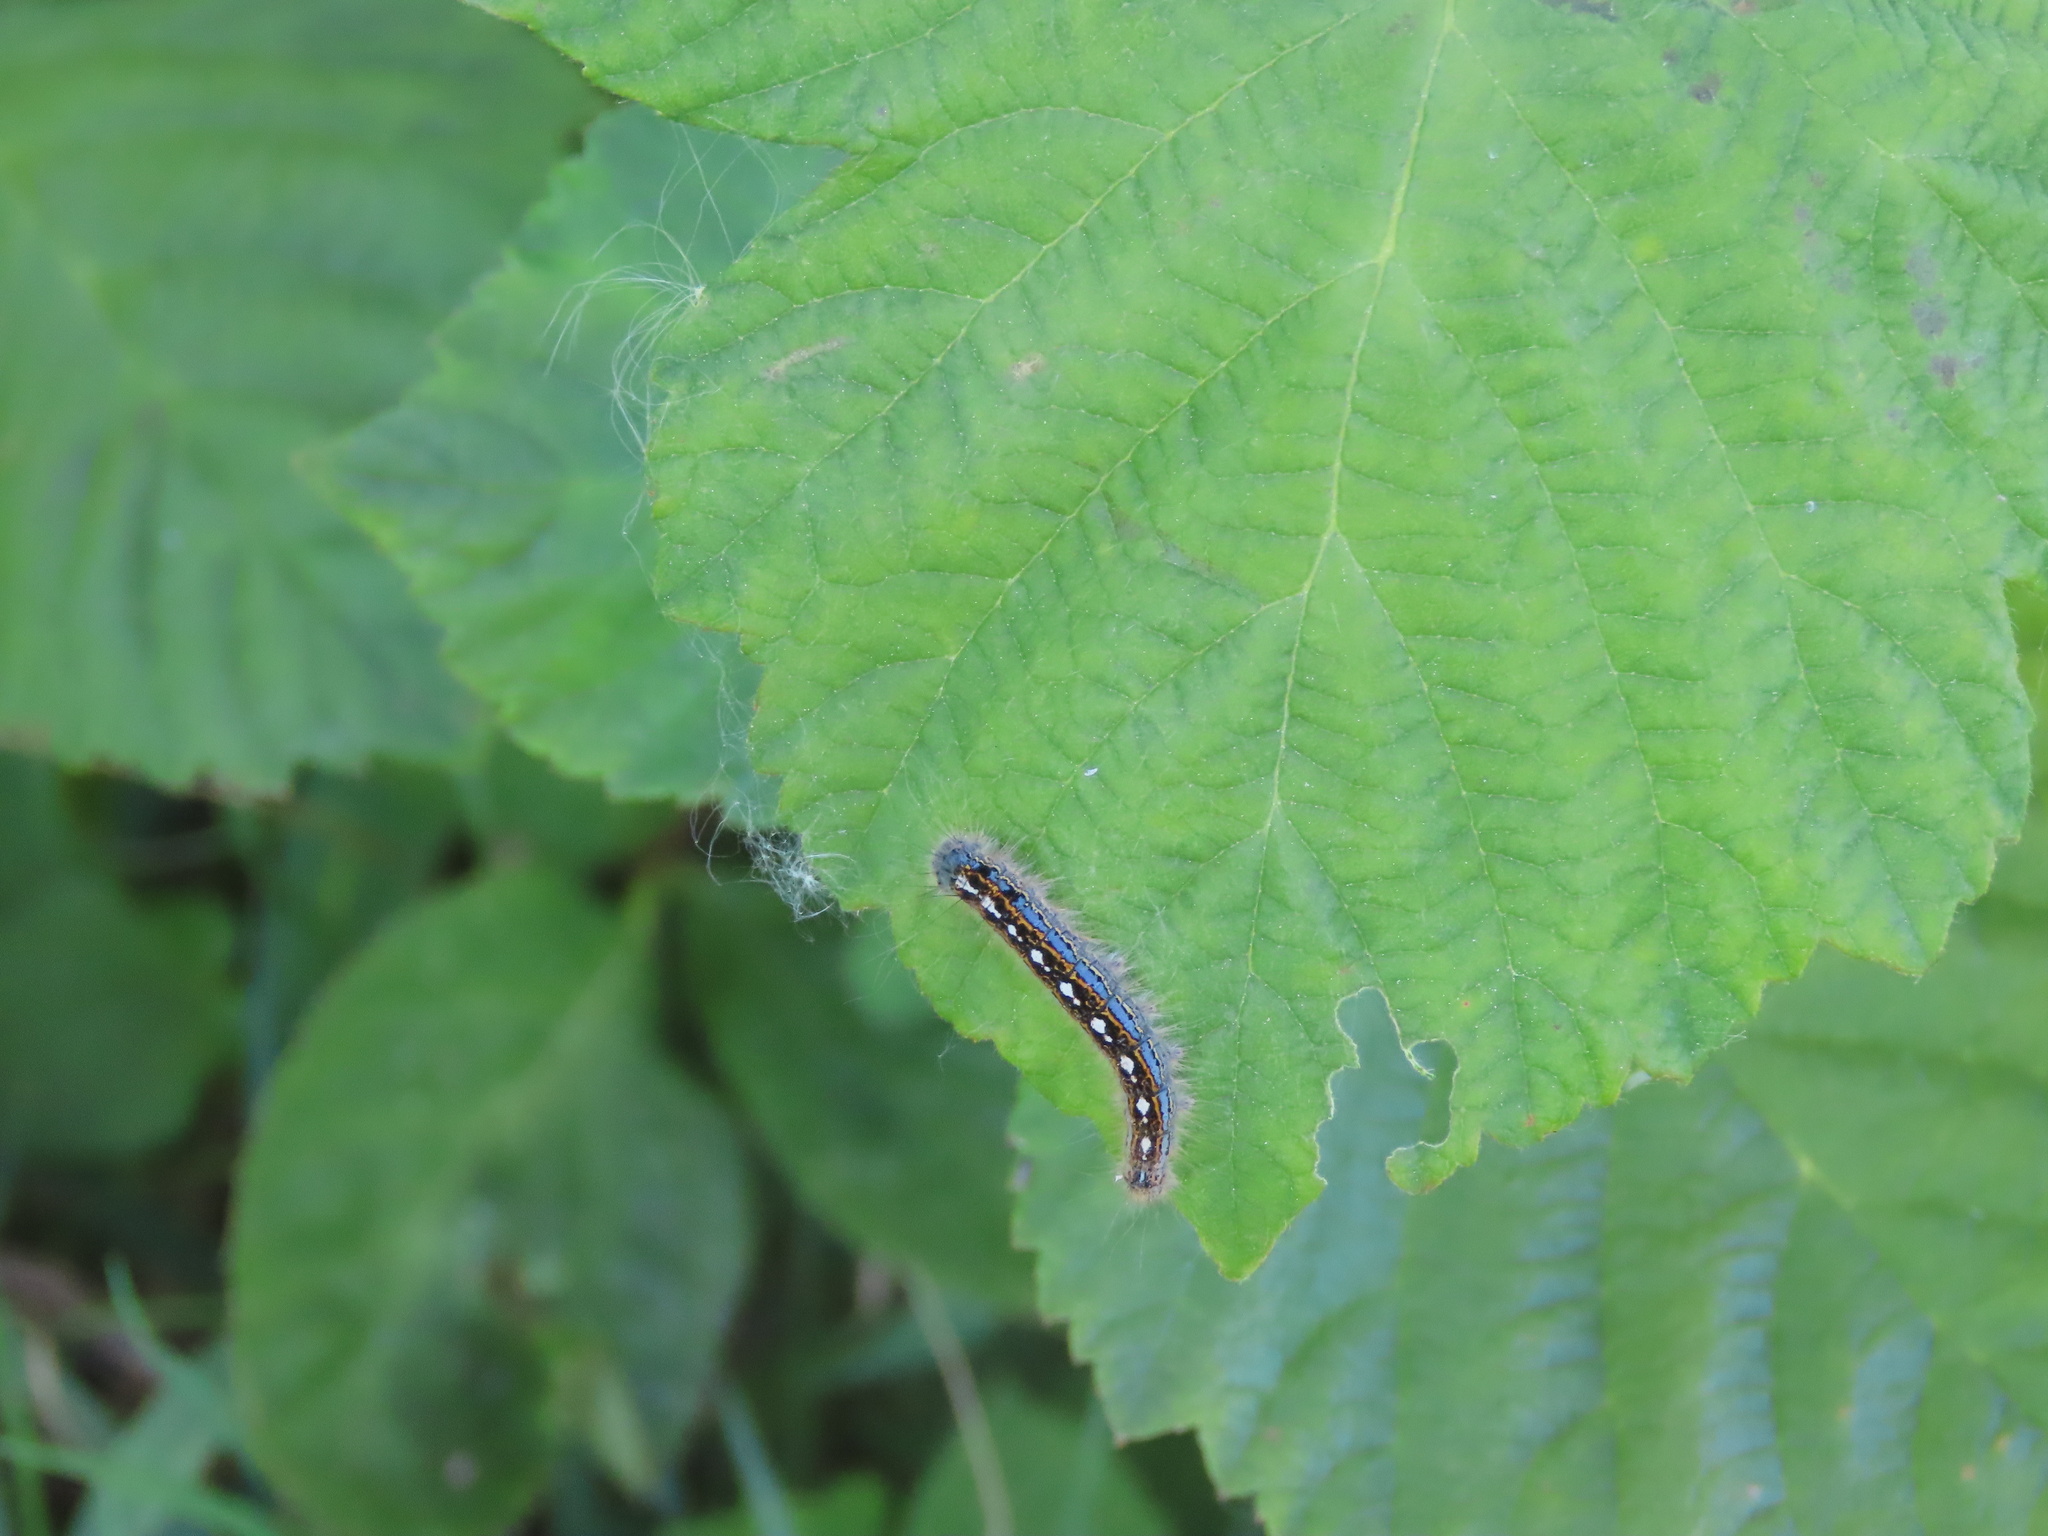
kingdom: Animalia
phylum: Arthropoda
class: Insecta
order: Lepidoptera
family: Lasiocampidae
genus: Malacosoma
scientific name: Malacosoma disstria
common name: Forest tent caterpillar
